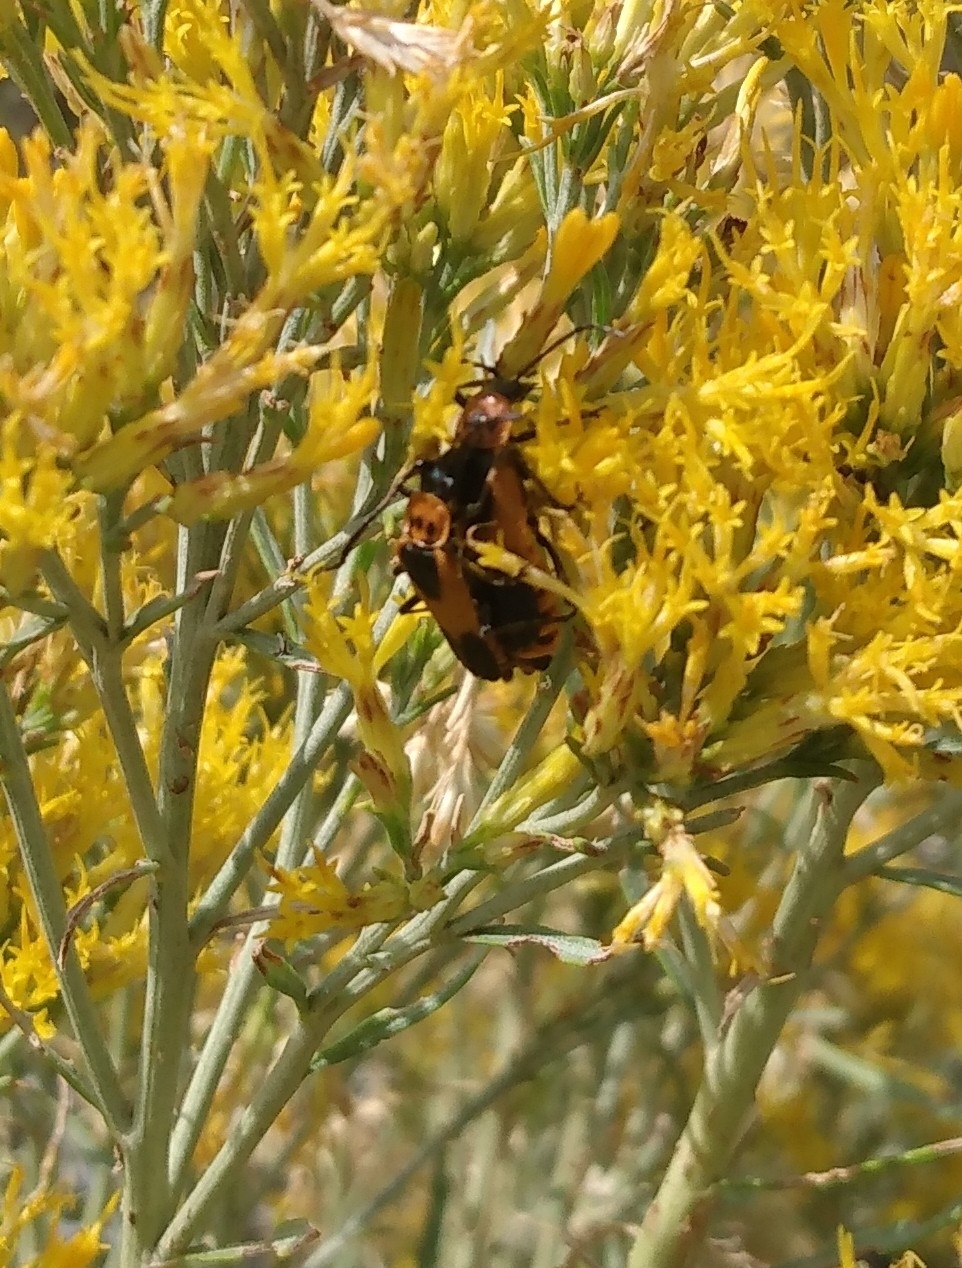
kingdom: Animalia
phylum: Arthropoda
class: Insecta
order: Coleoptera
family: Cantharidae
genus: Chauliognathus
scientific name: Chauliognathus basalis
